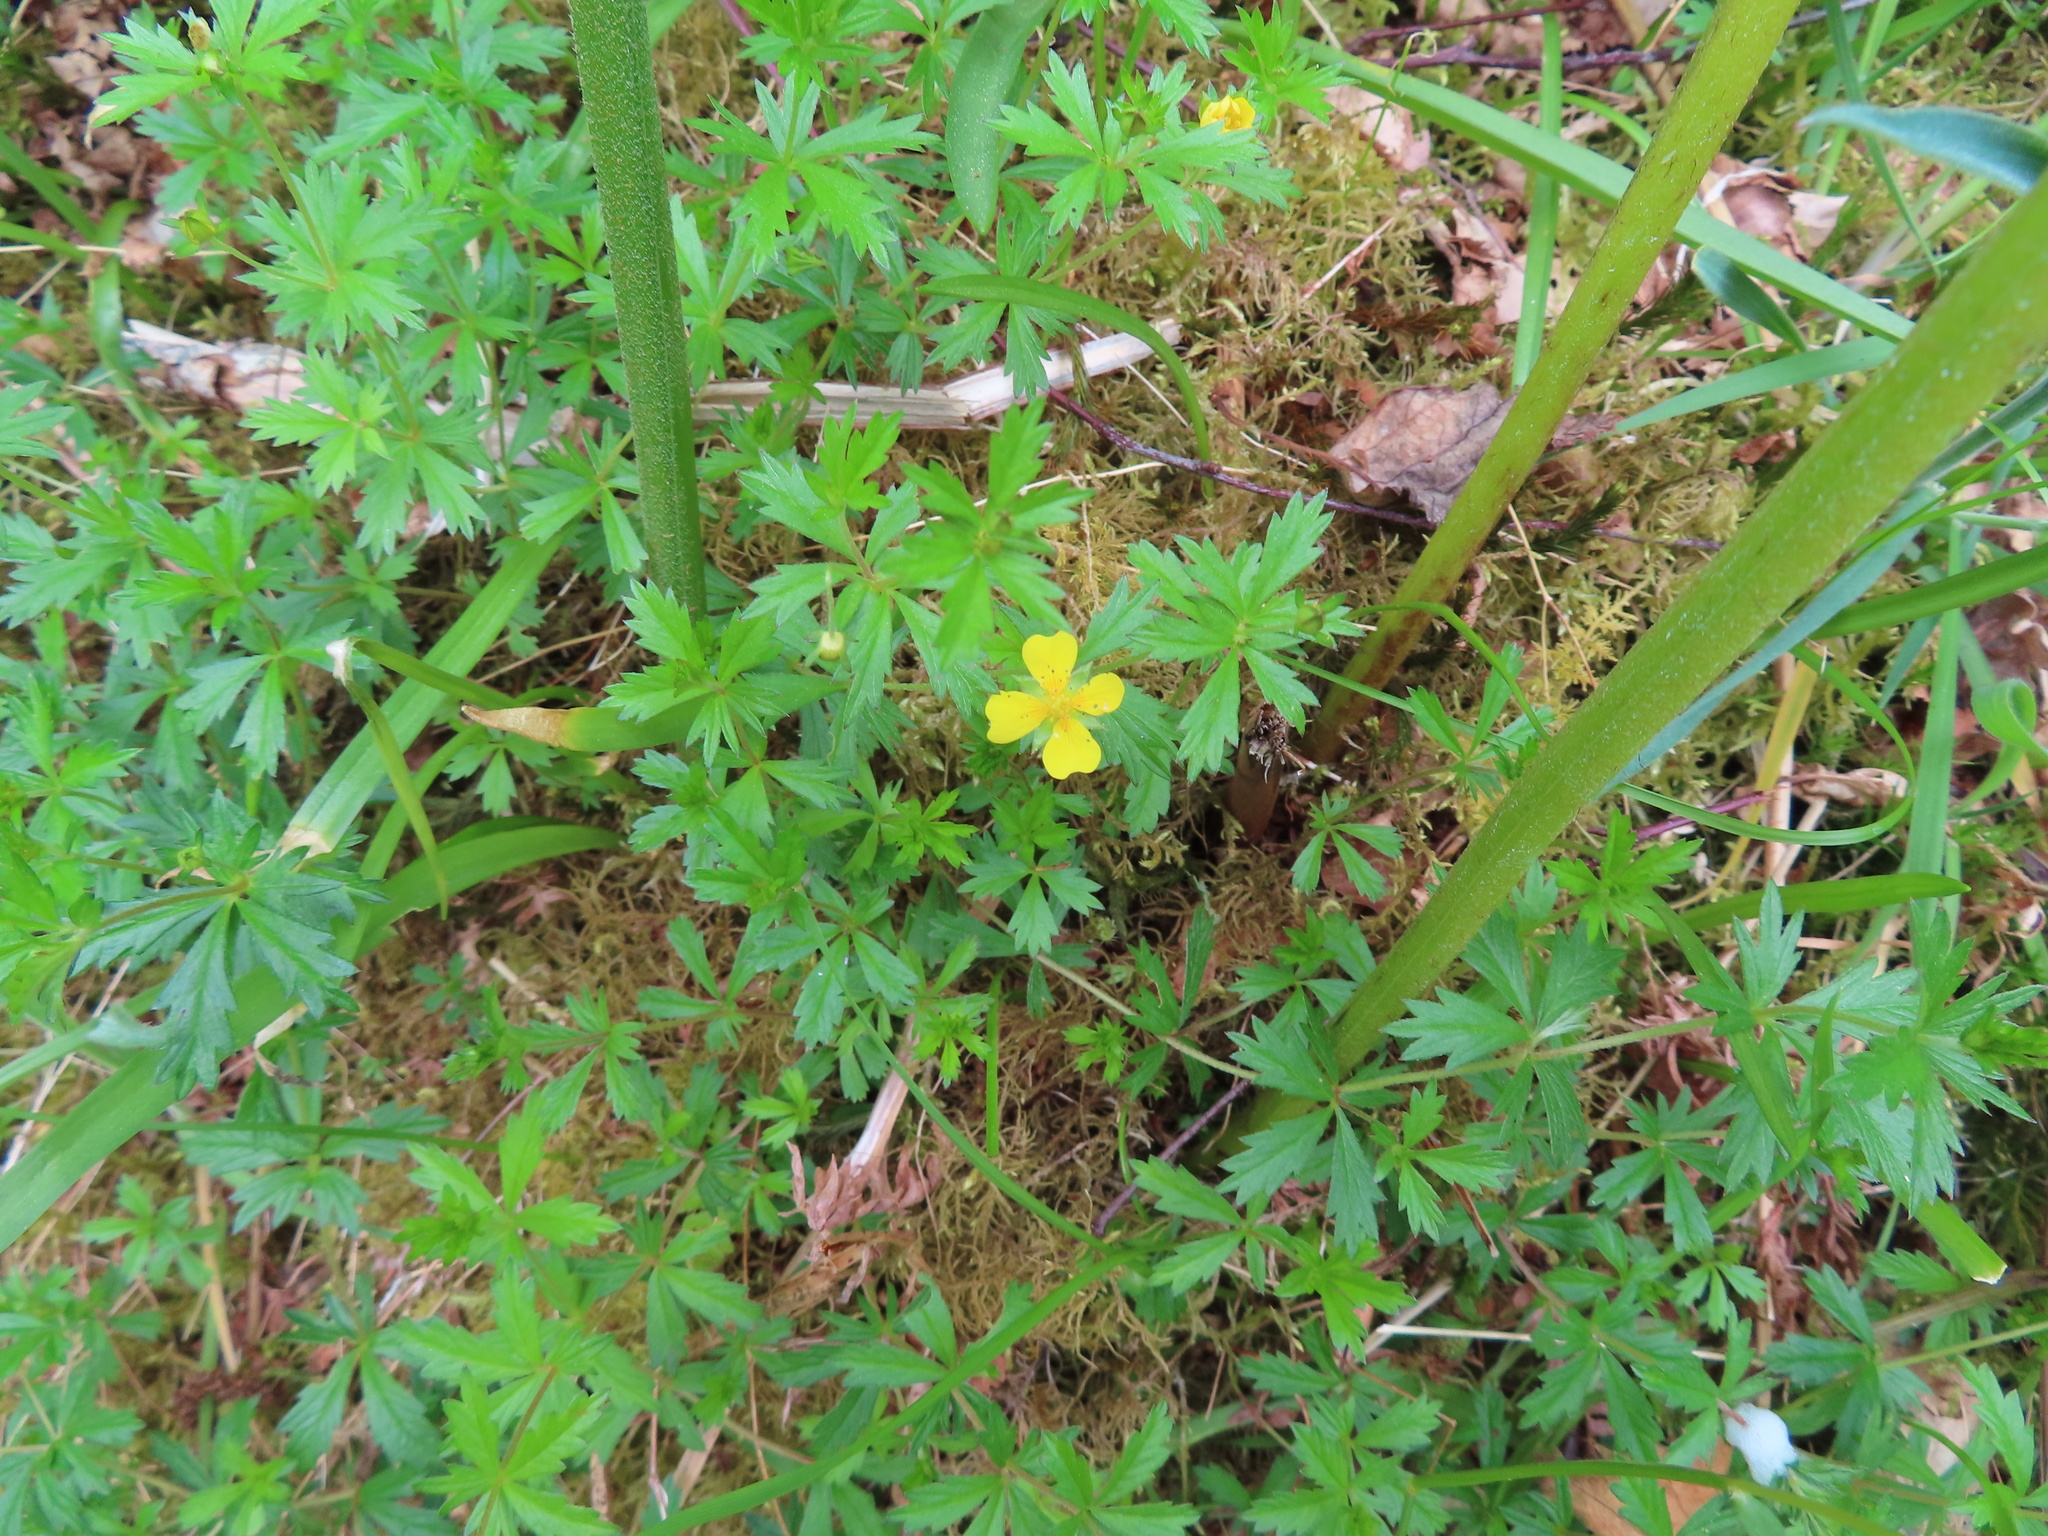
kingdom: Plantae
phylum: Tracheophyta
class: Magnoliopsida
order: Rosales
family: Rosaceae
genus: Potentilla
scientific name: Potentilla erecta
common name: Tormentil
